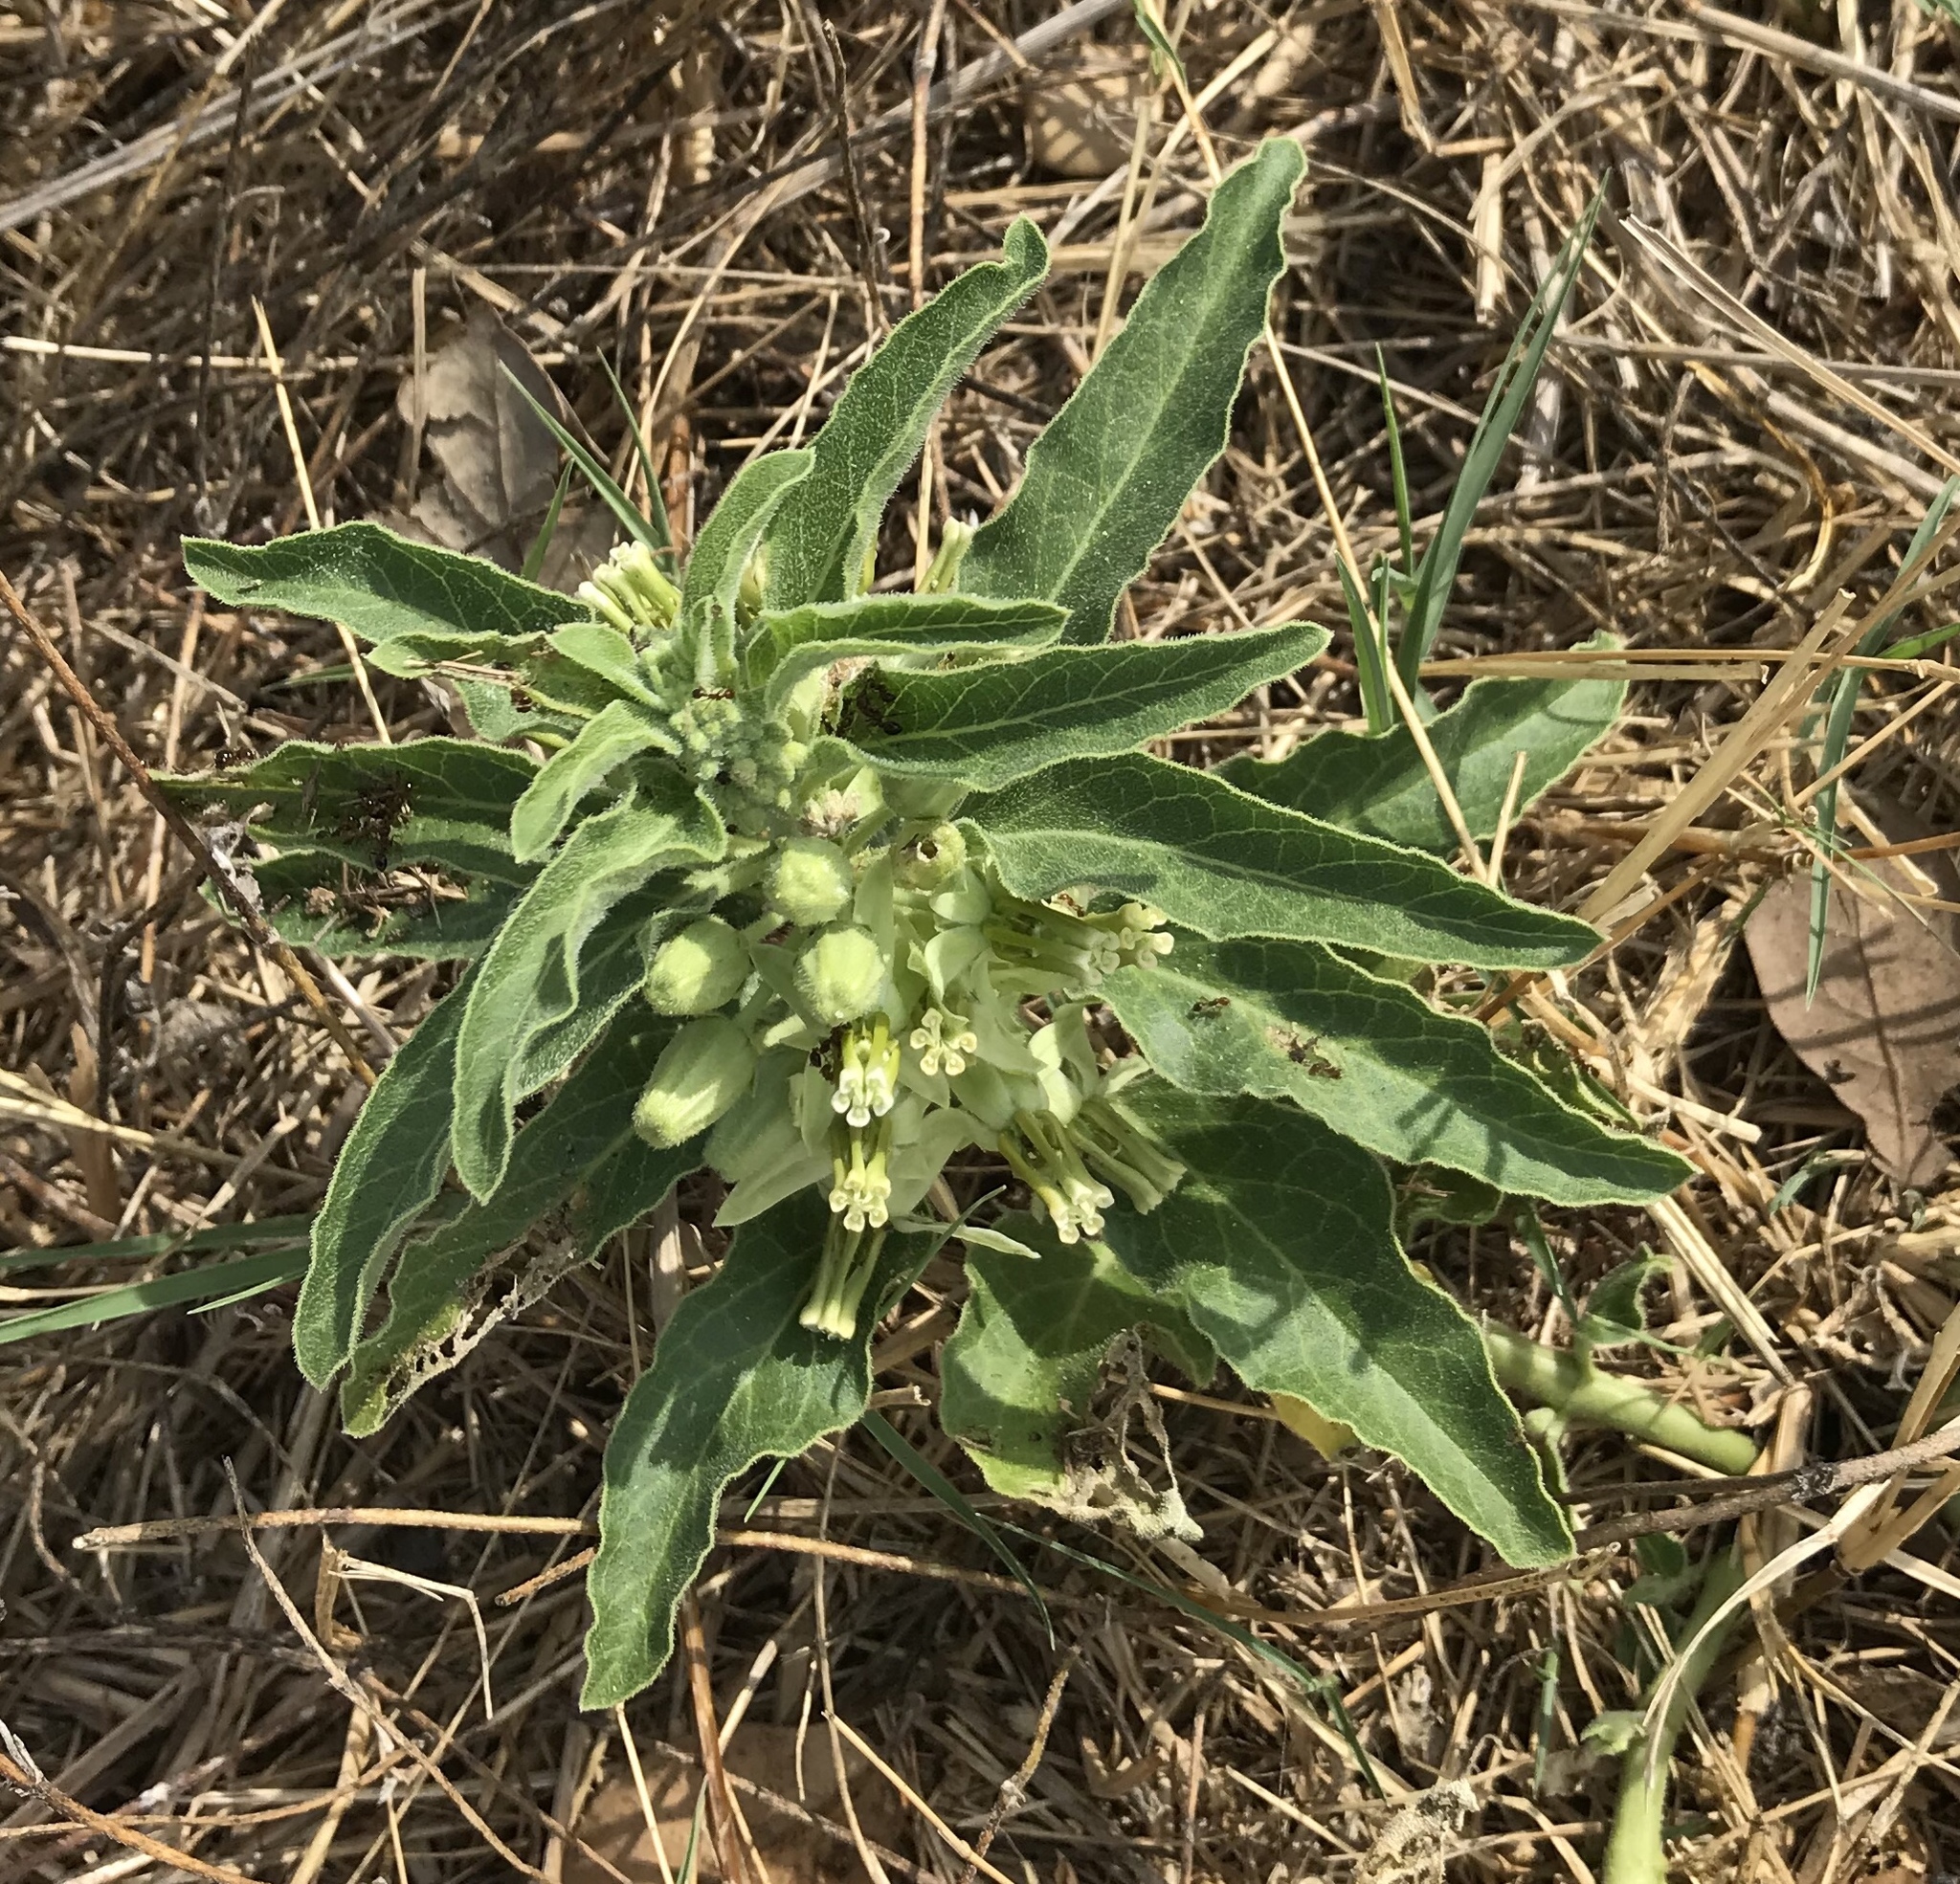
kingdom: Plantae
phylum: Tracheophyta
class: Magnoliopsida
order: Gentianales
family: Apocynaceae
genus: Asclepias
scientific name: Asclepias oenotheroides
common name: Zizotes milkweed
